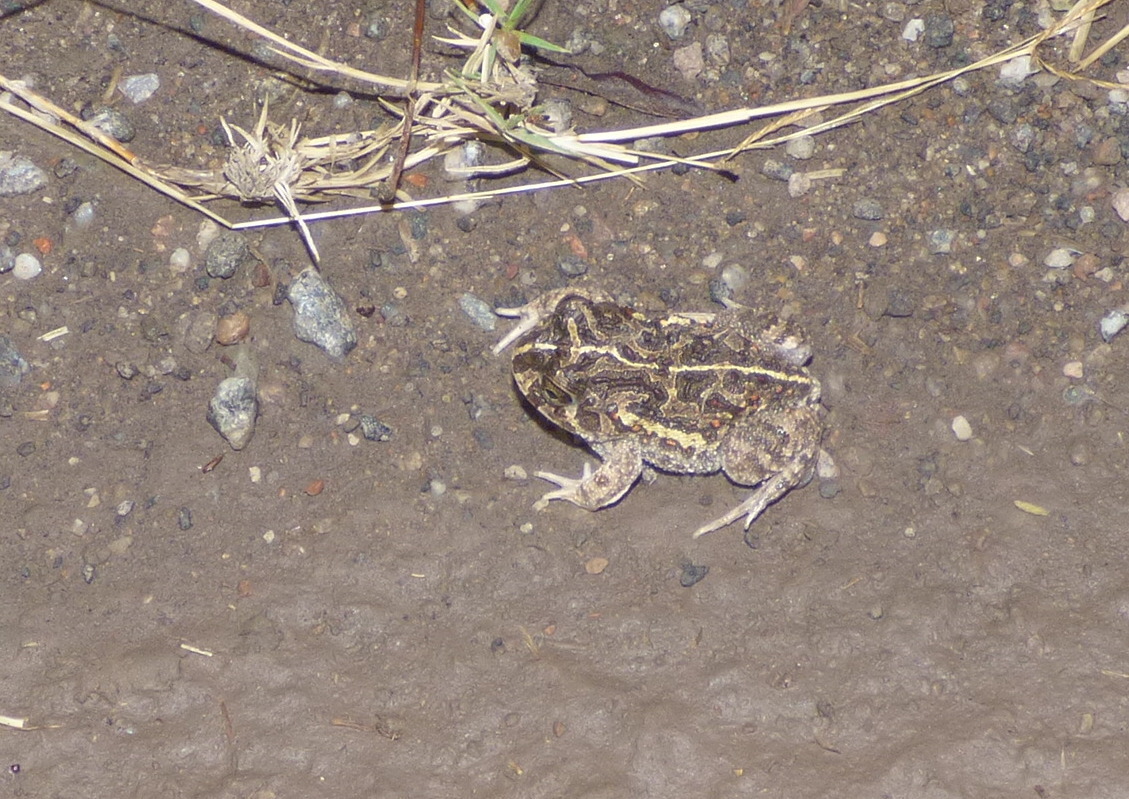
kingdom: Animalia
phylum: Chordata
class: Amphibia
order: Anura
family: Odontophrynidae
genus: Odontophrynus
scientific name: Odontophrynus
